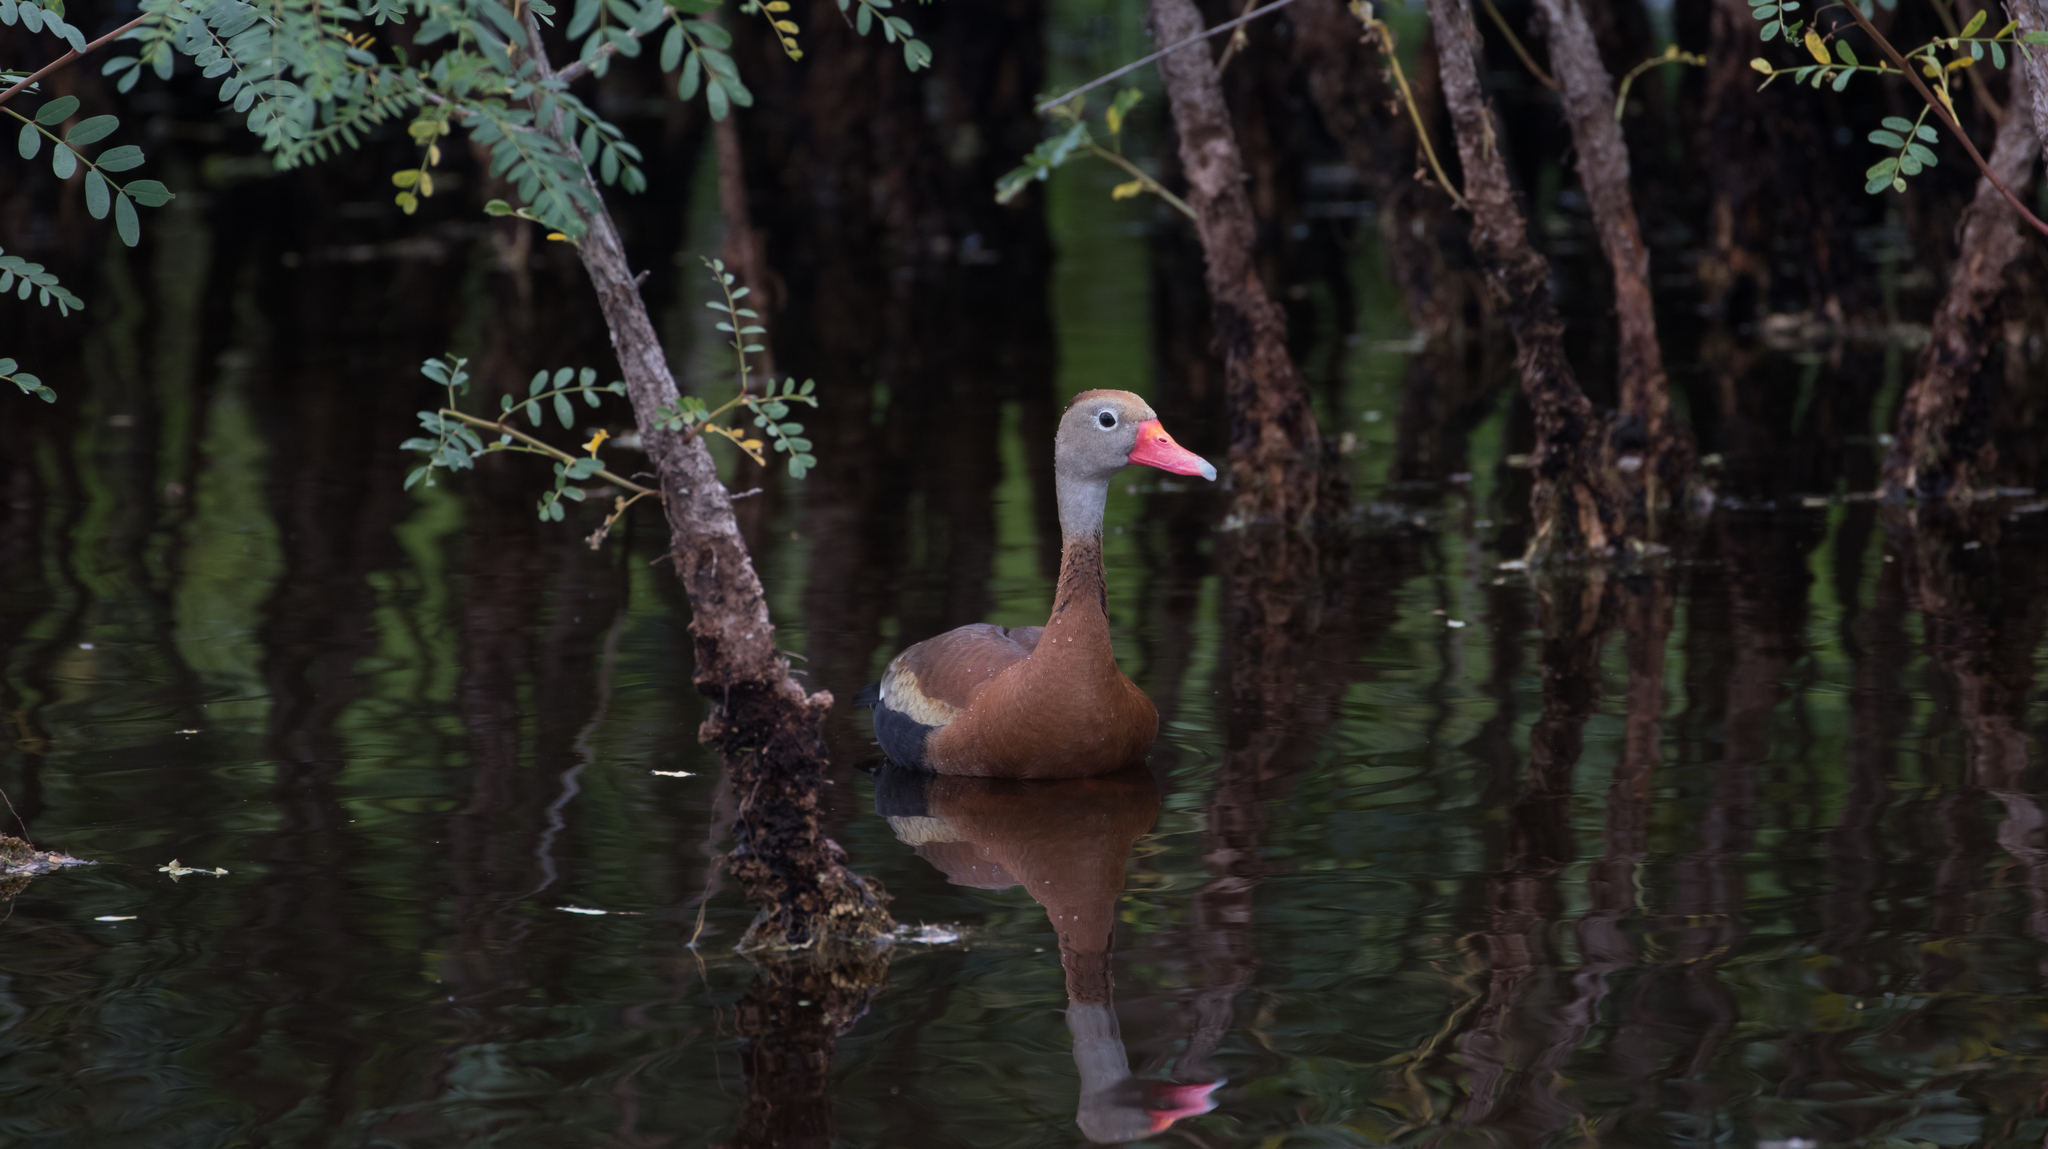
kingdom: Animalia
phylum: Chordata
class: Aves
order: Anseriformes
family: Anatidae
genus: Dendrocygna
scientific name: Dendrocygna autumnalis
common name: Black-bellied whistling duck
